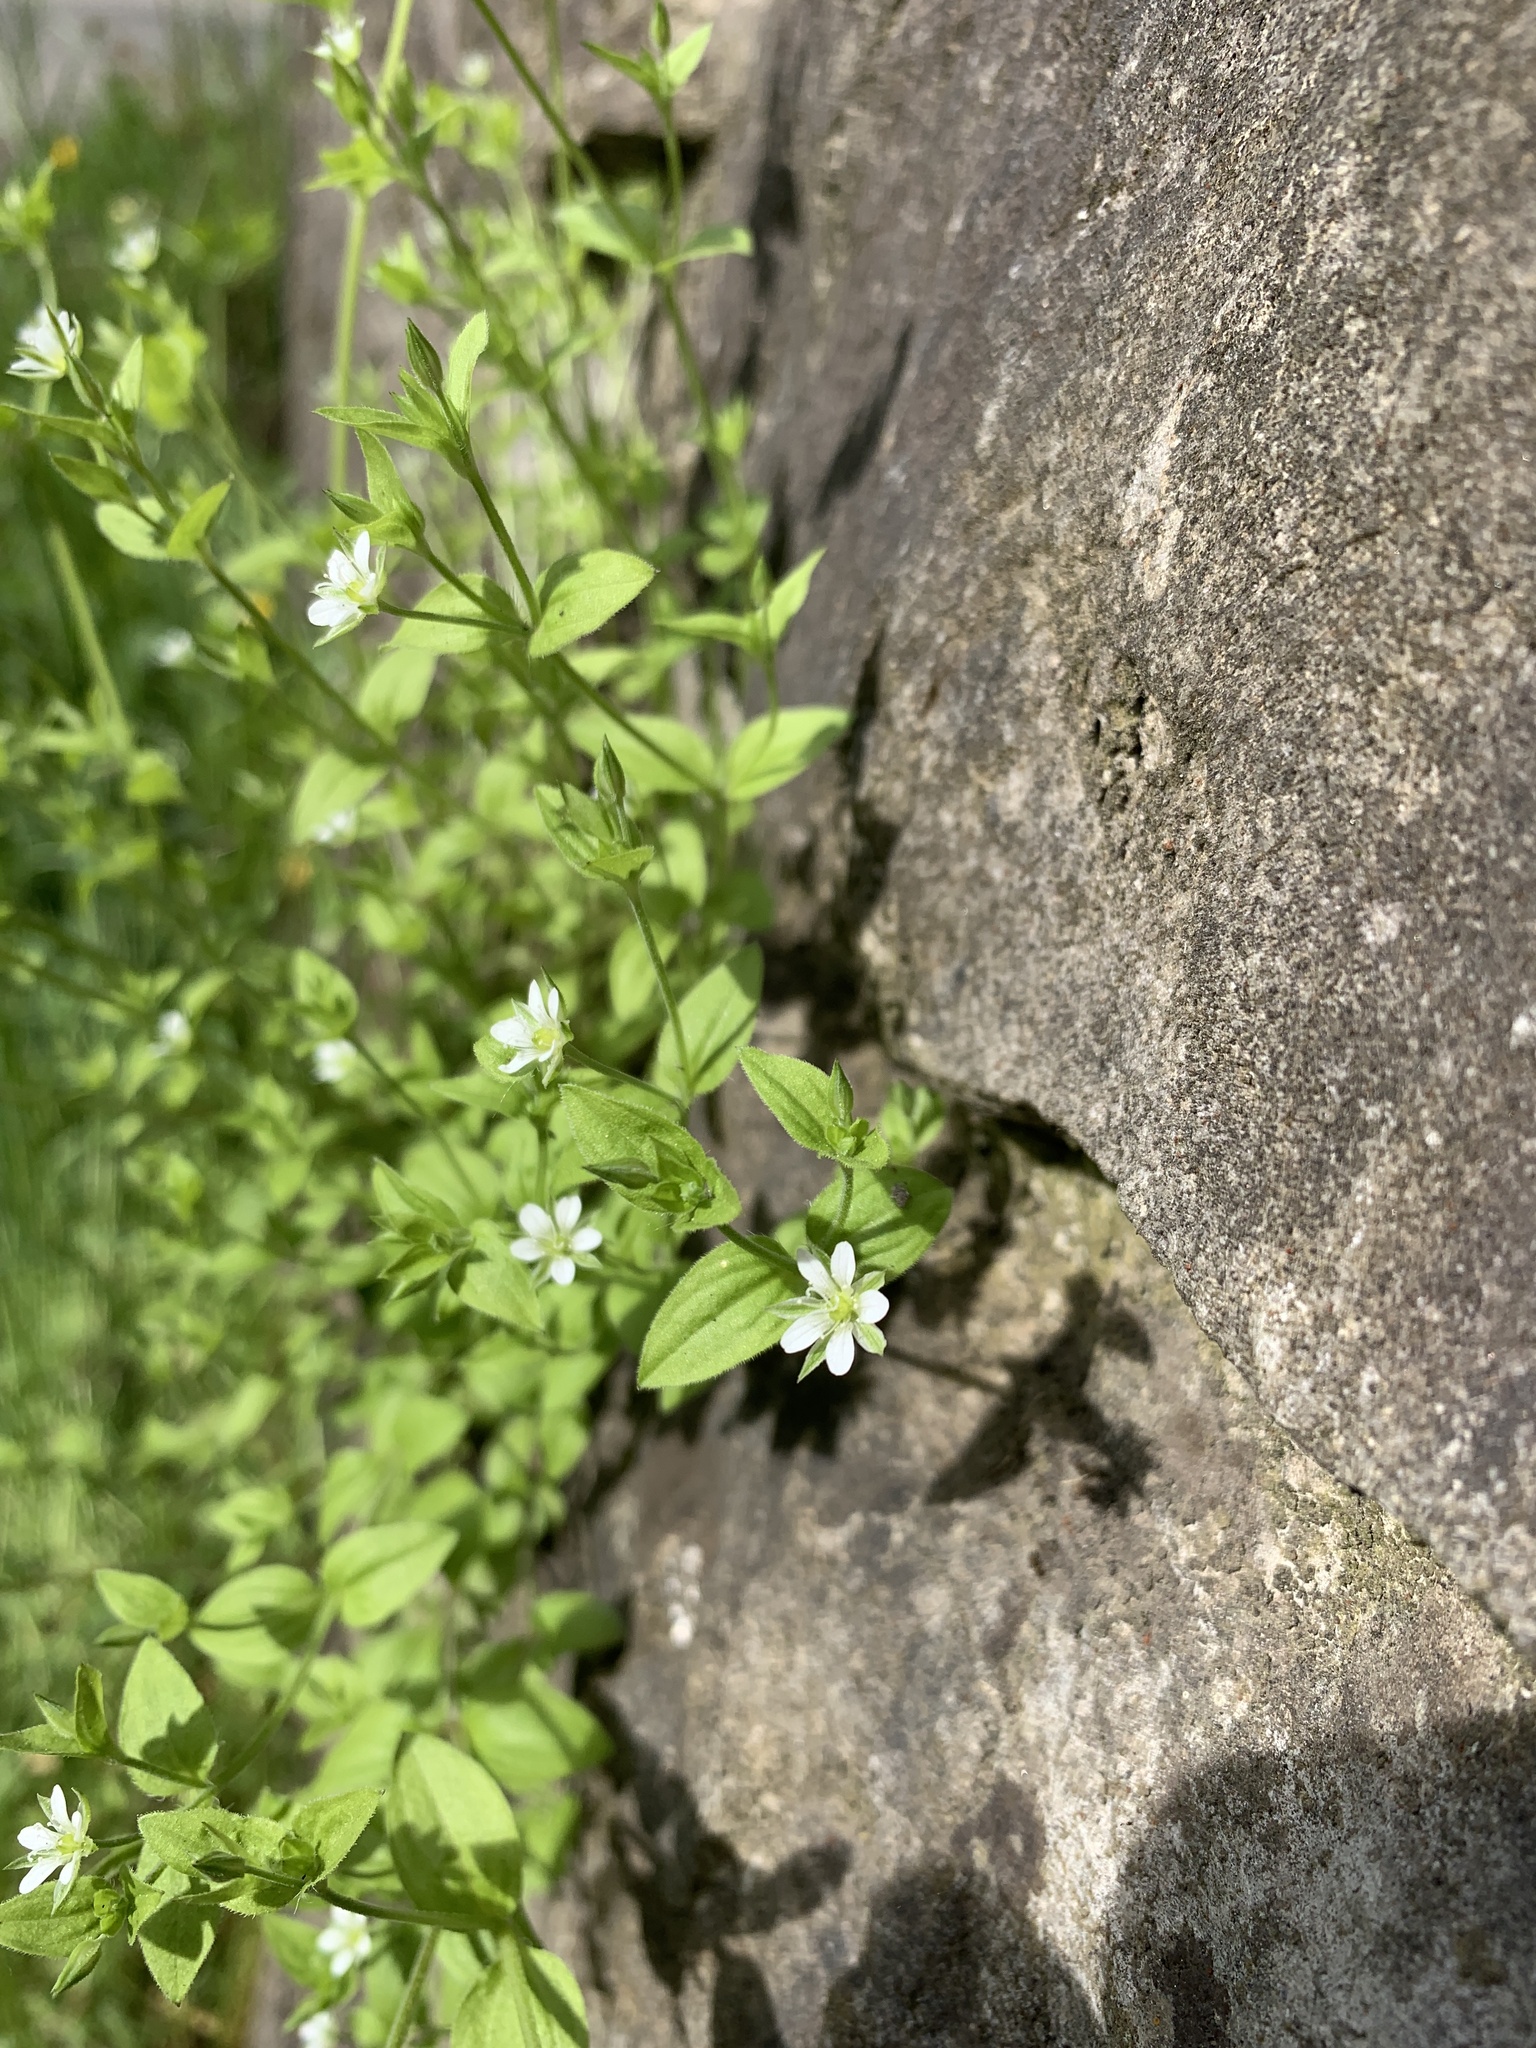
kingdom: Plantae
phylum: Tracheophyta
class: Magnoliopsida
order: Caryophyllales
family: Caryophyllaceae
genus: Moehringia
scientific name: Moehringia trinervia
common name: Three-nerved sandwort
